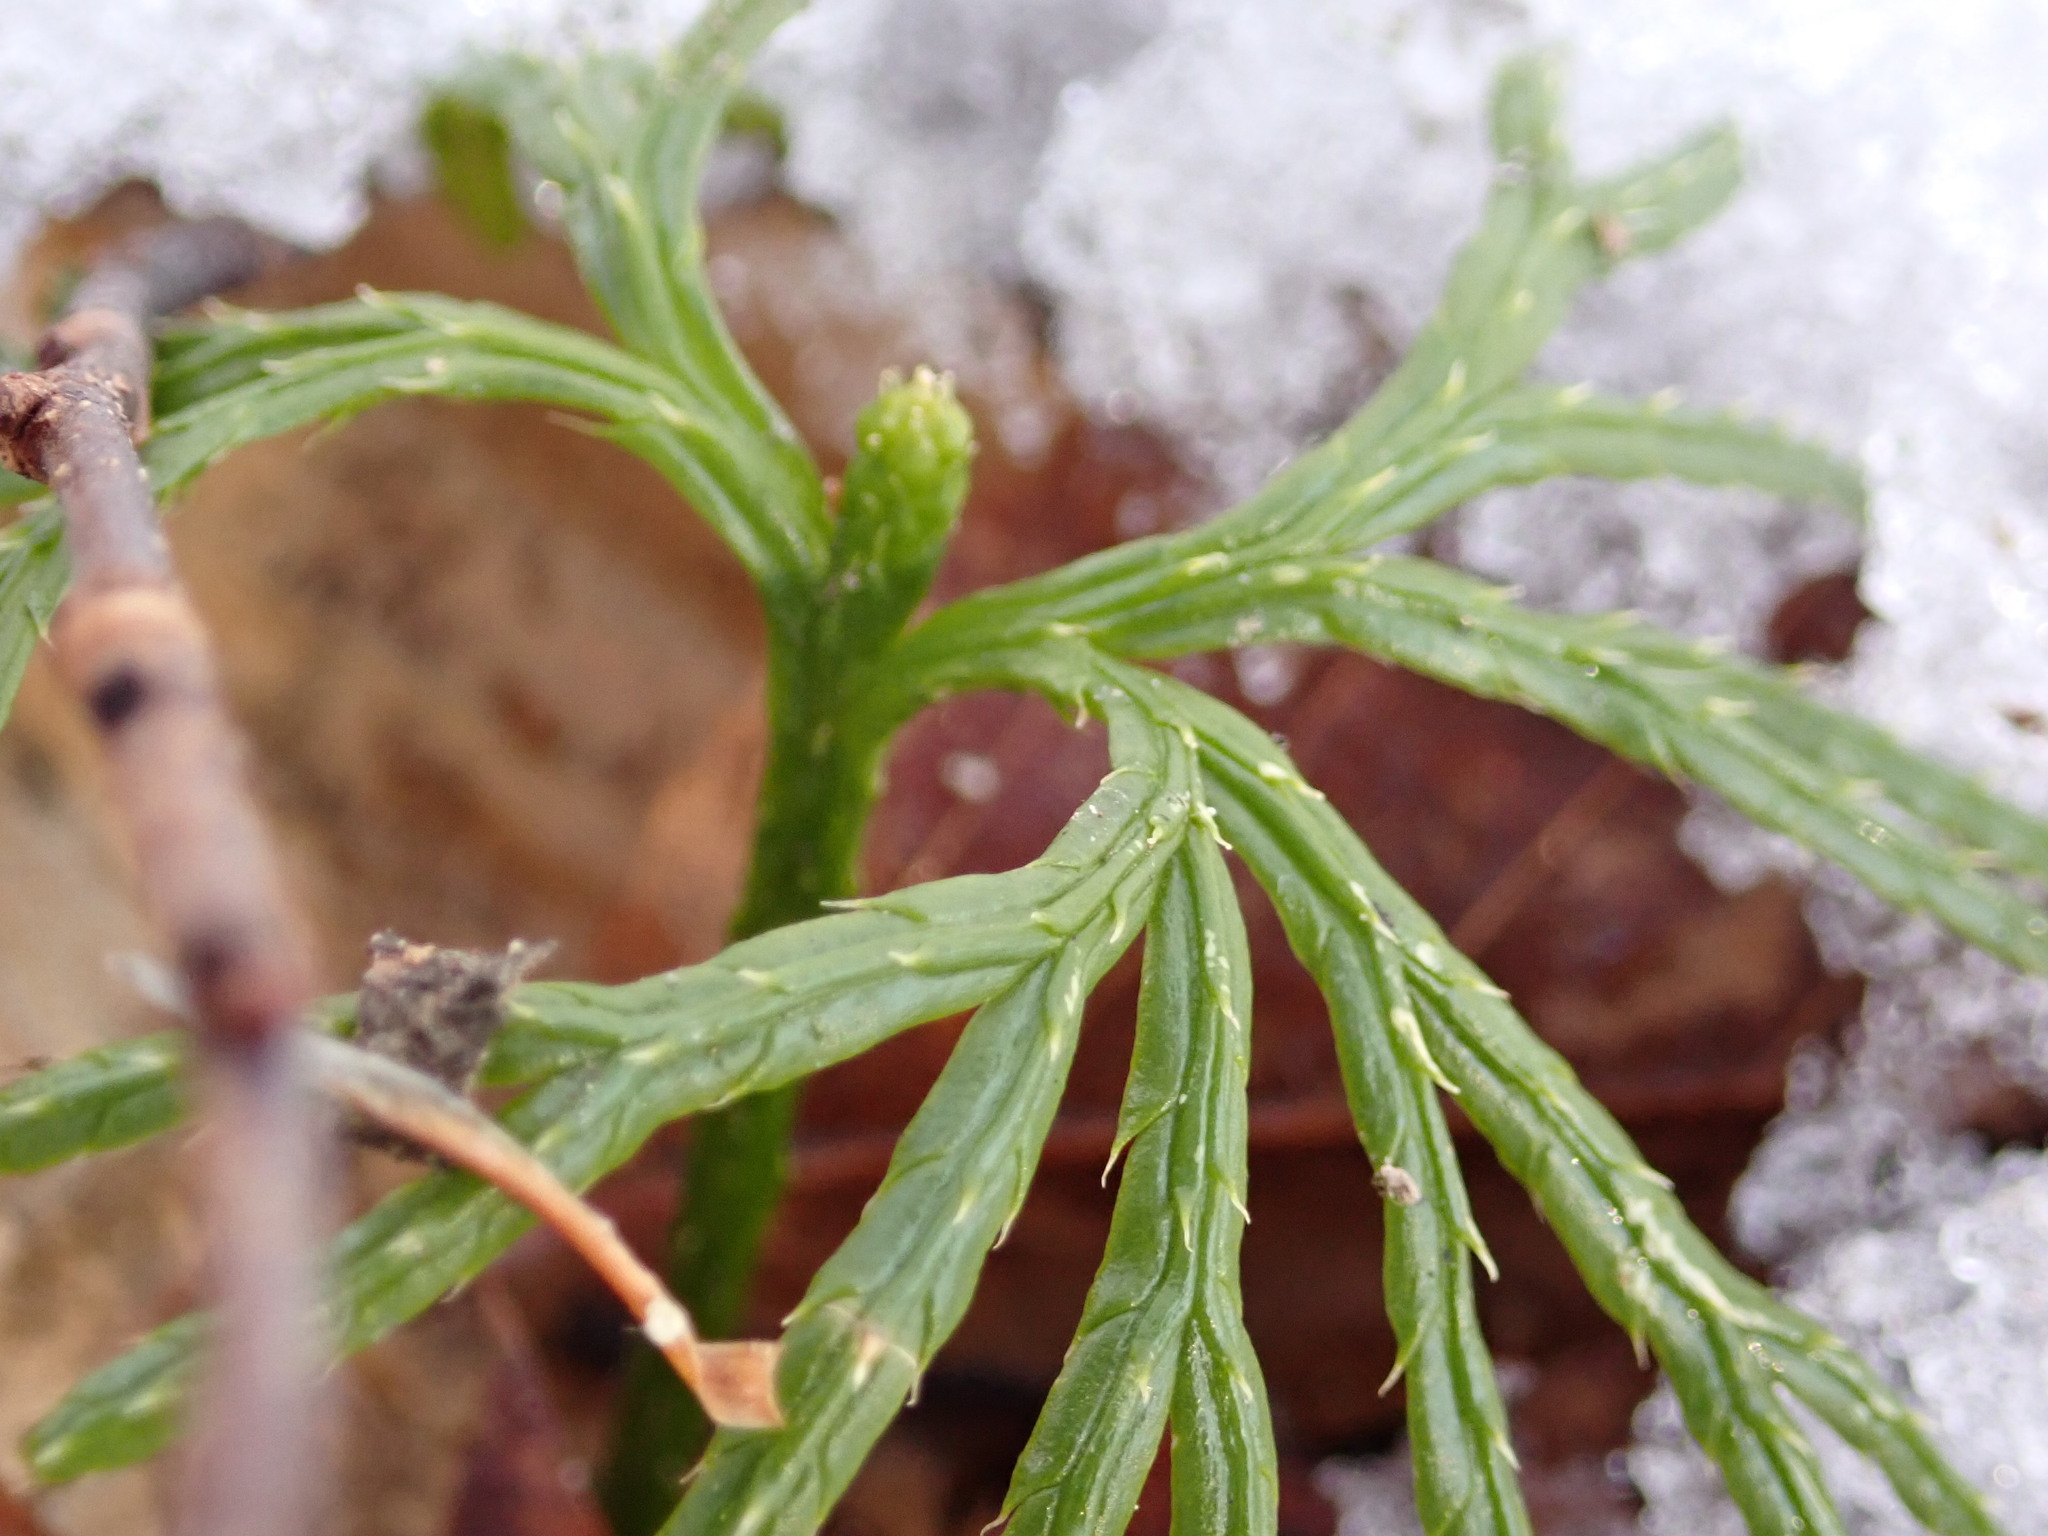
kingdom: Plantae
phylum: Tracheophyta
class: Lycopodiopsida
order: Lycopodiales
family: Lycopodiaceae
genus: Diphasiastrum
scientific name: Diphasiastrum digitatum
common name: Southern running-pine
